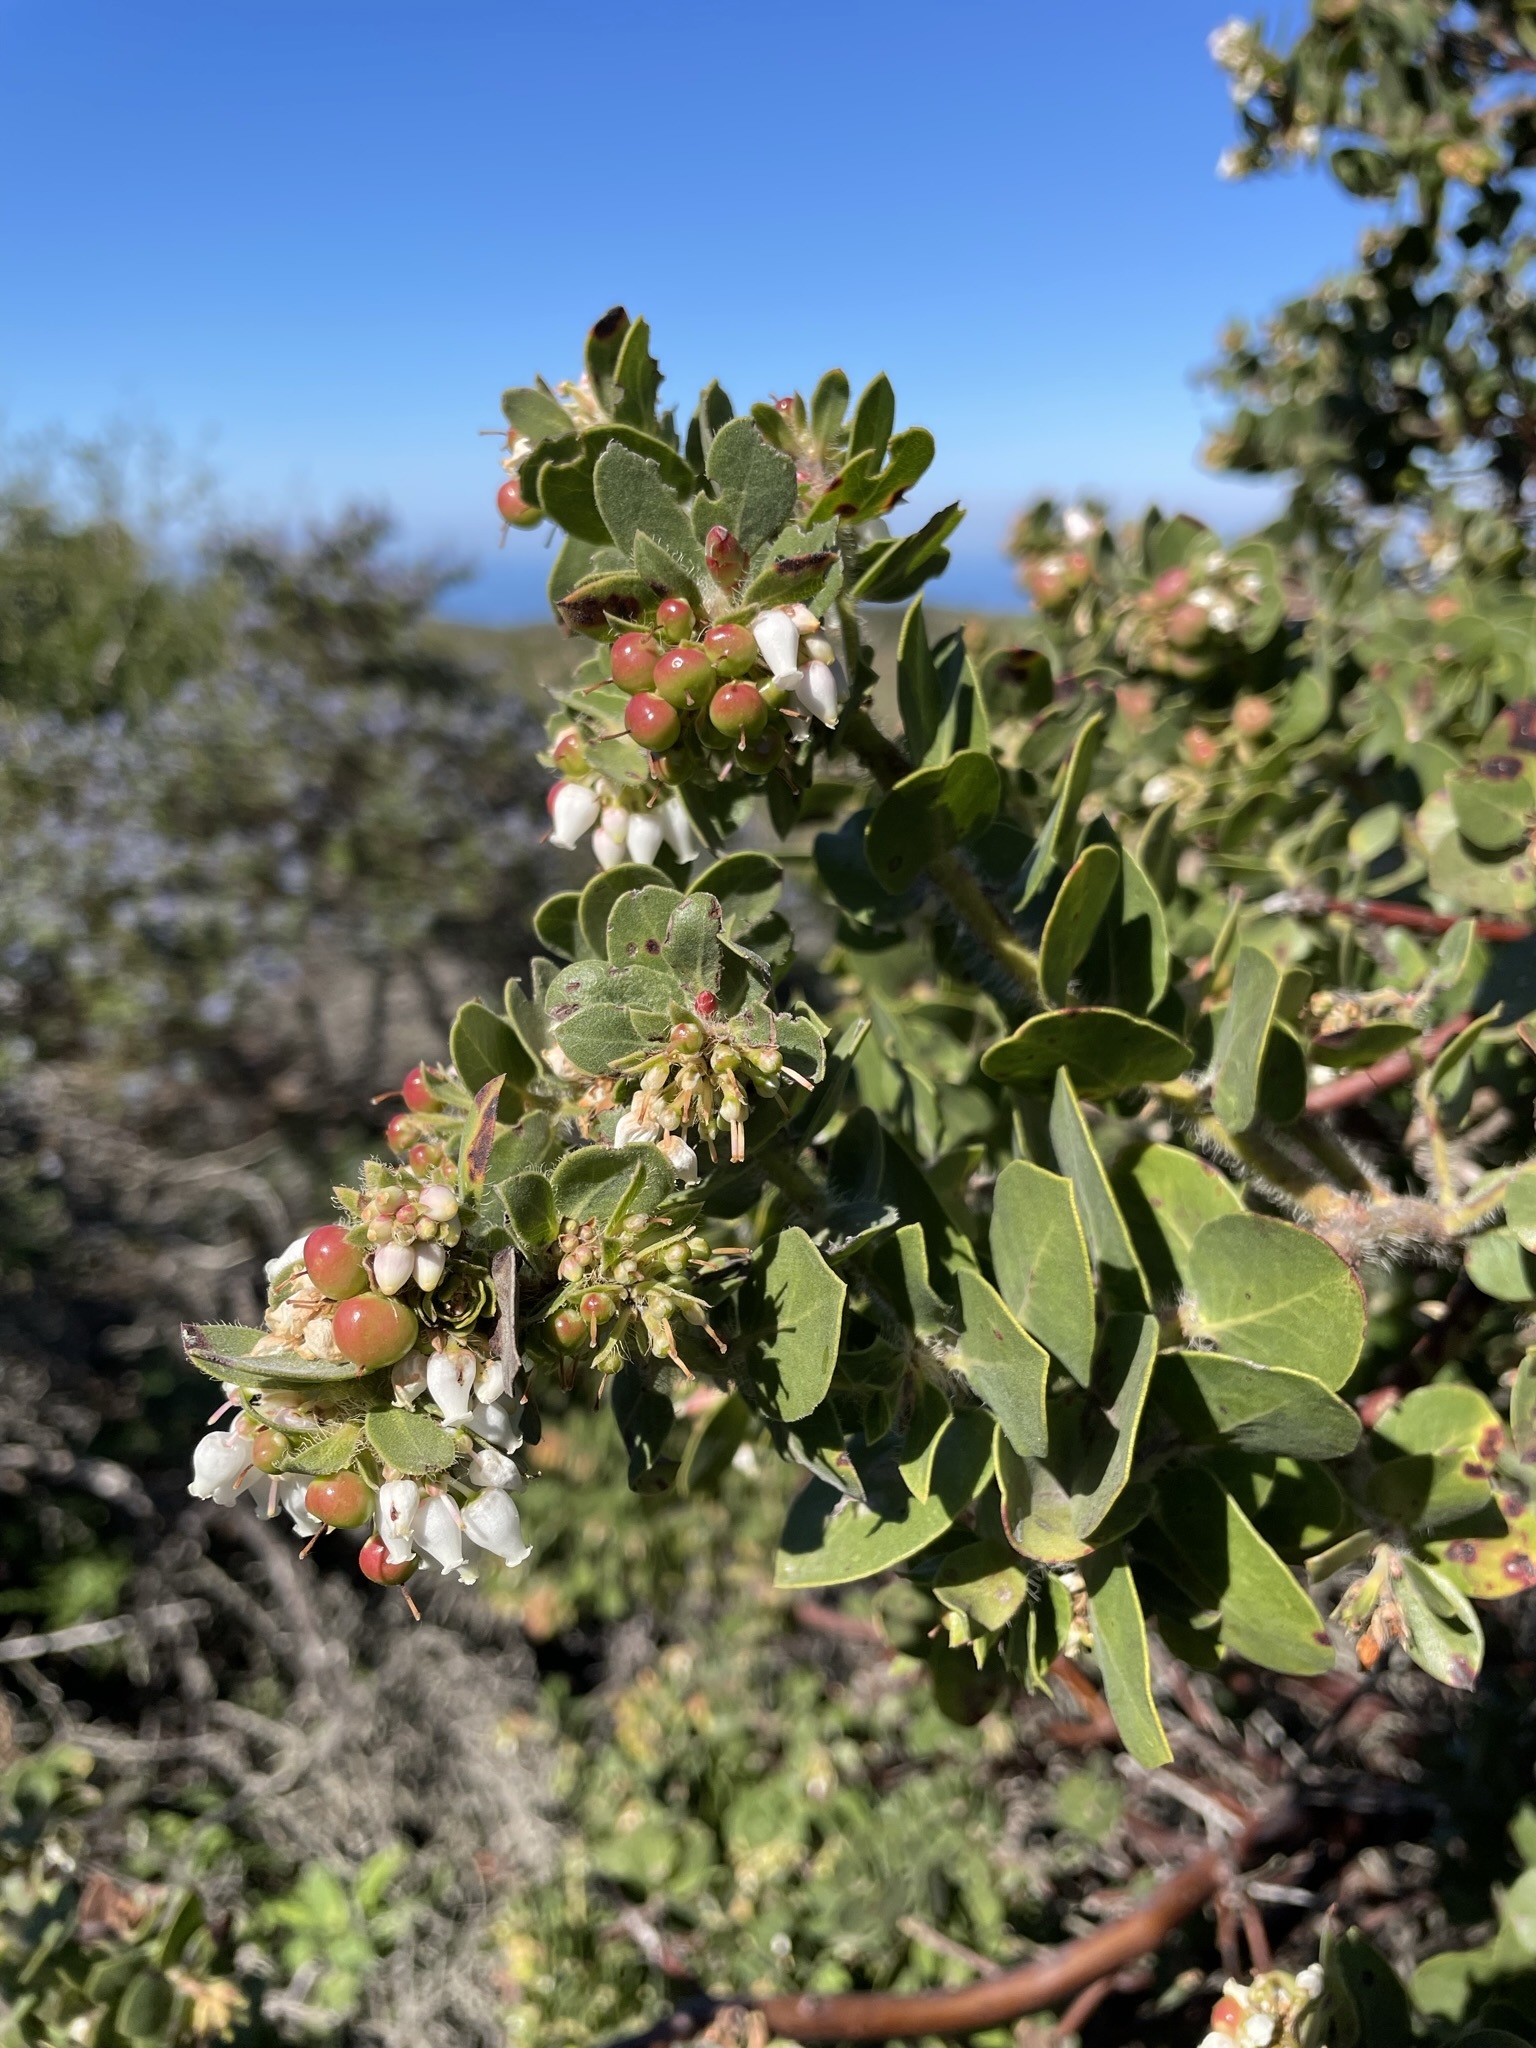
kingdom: Plantae
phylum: Tracheophyta
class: Magnoliopsida
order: Ericales
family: Ericaceae
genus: Arctostaphylos
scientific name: Arctostaphylos purissima
